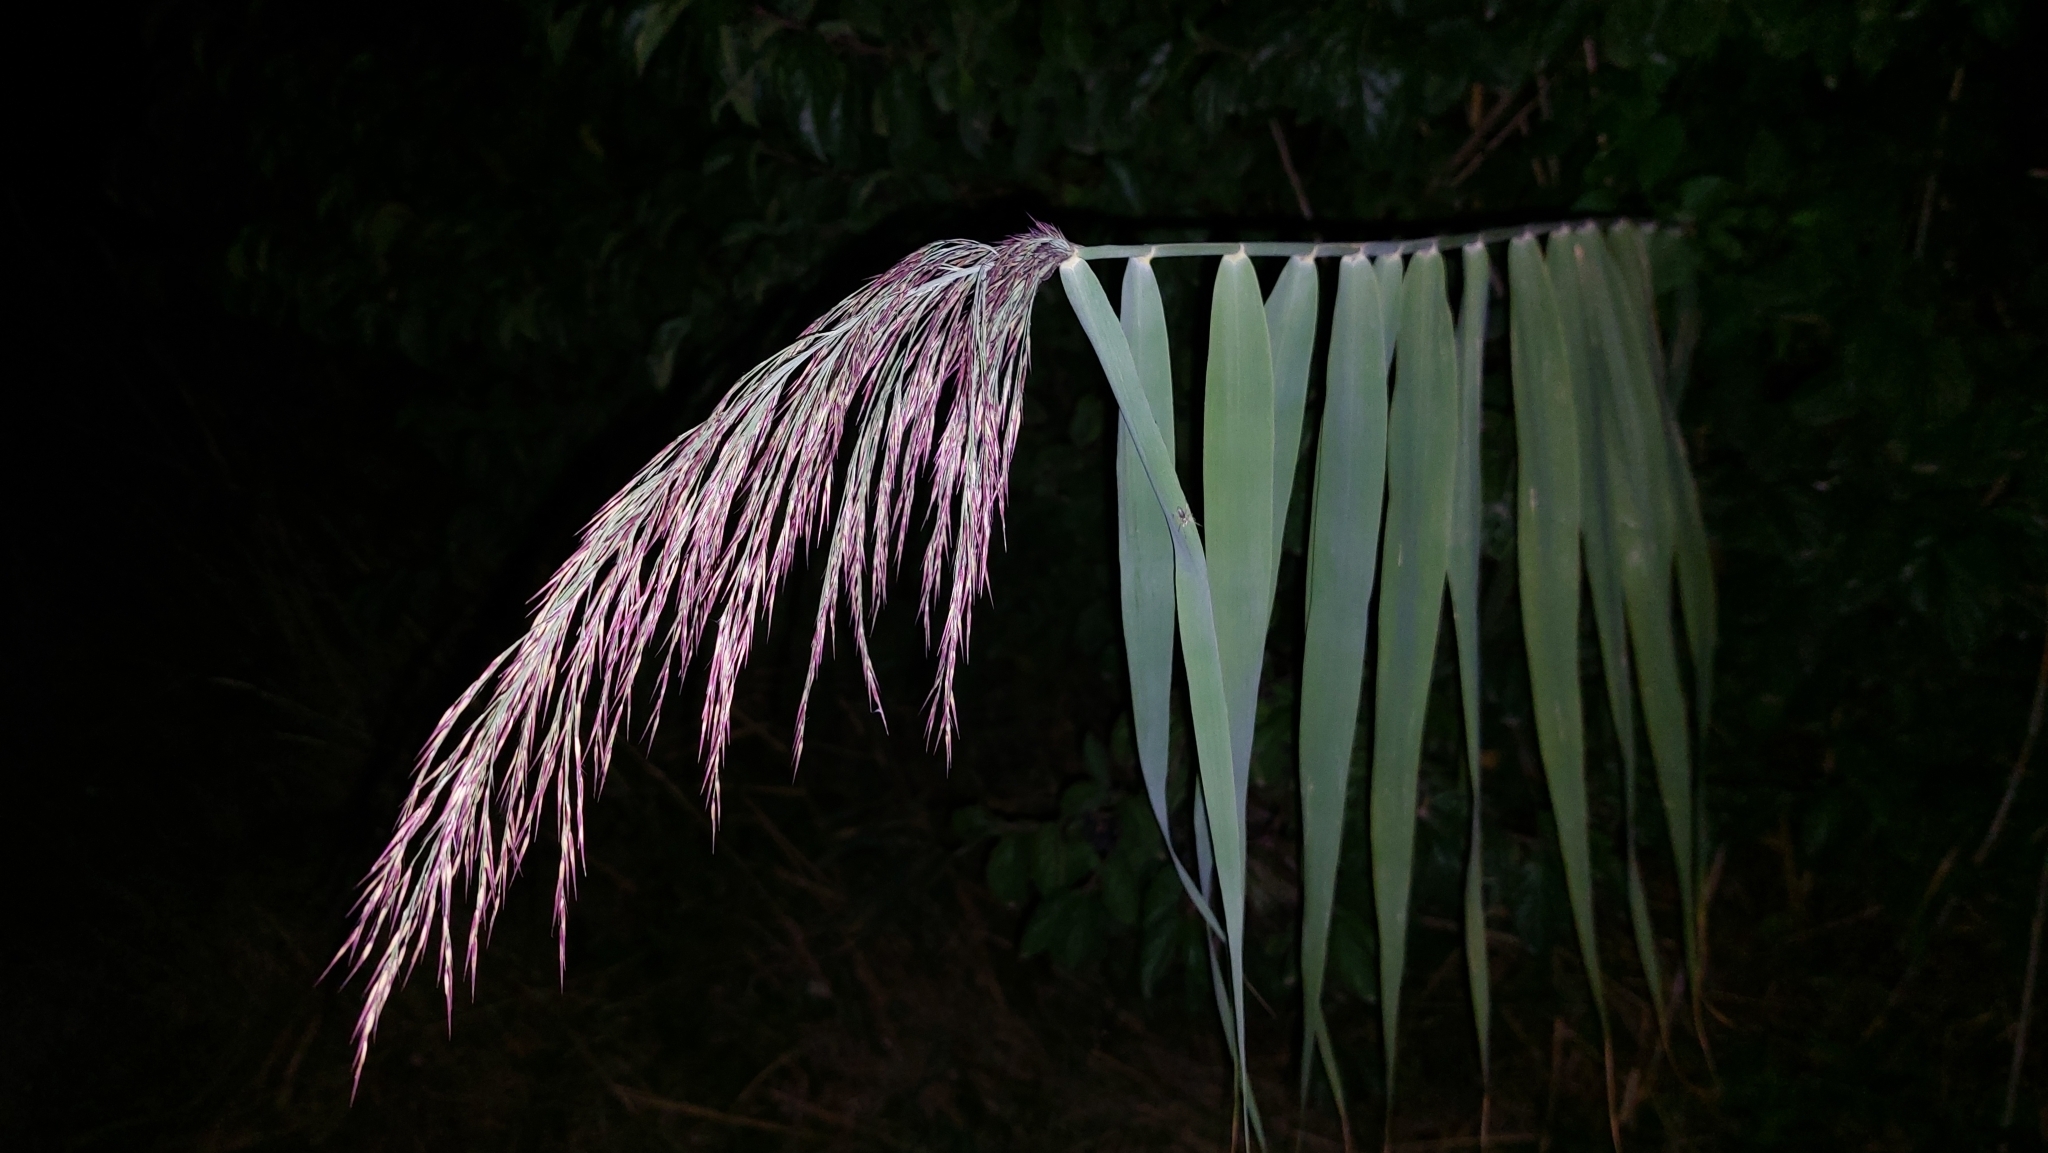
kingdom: Plantae
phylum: Tracheophyta
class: Liliopsida
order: Poales
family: Poaceae
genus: Phragmites
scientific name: Phragmites australis
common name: Common reed
